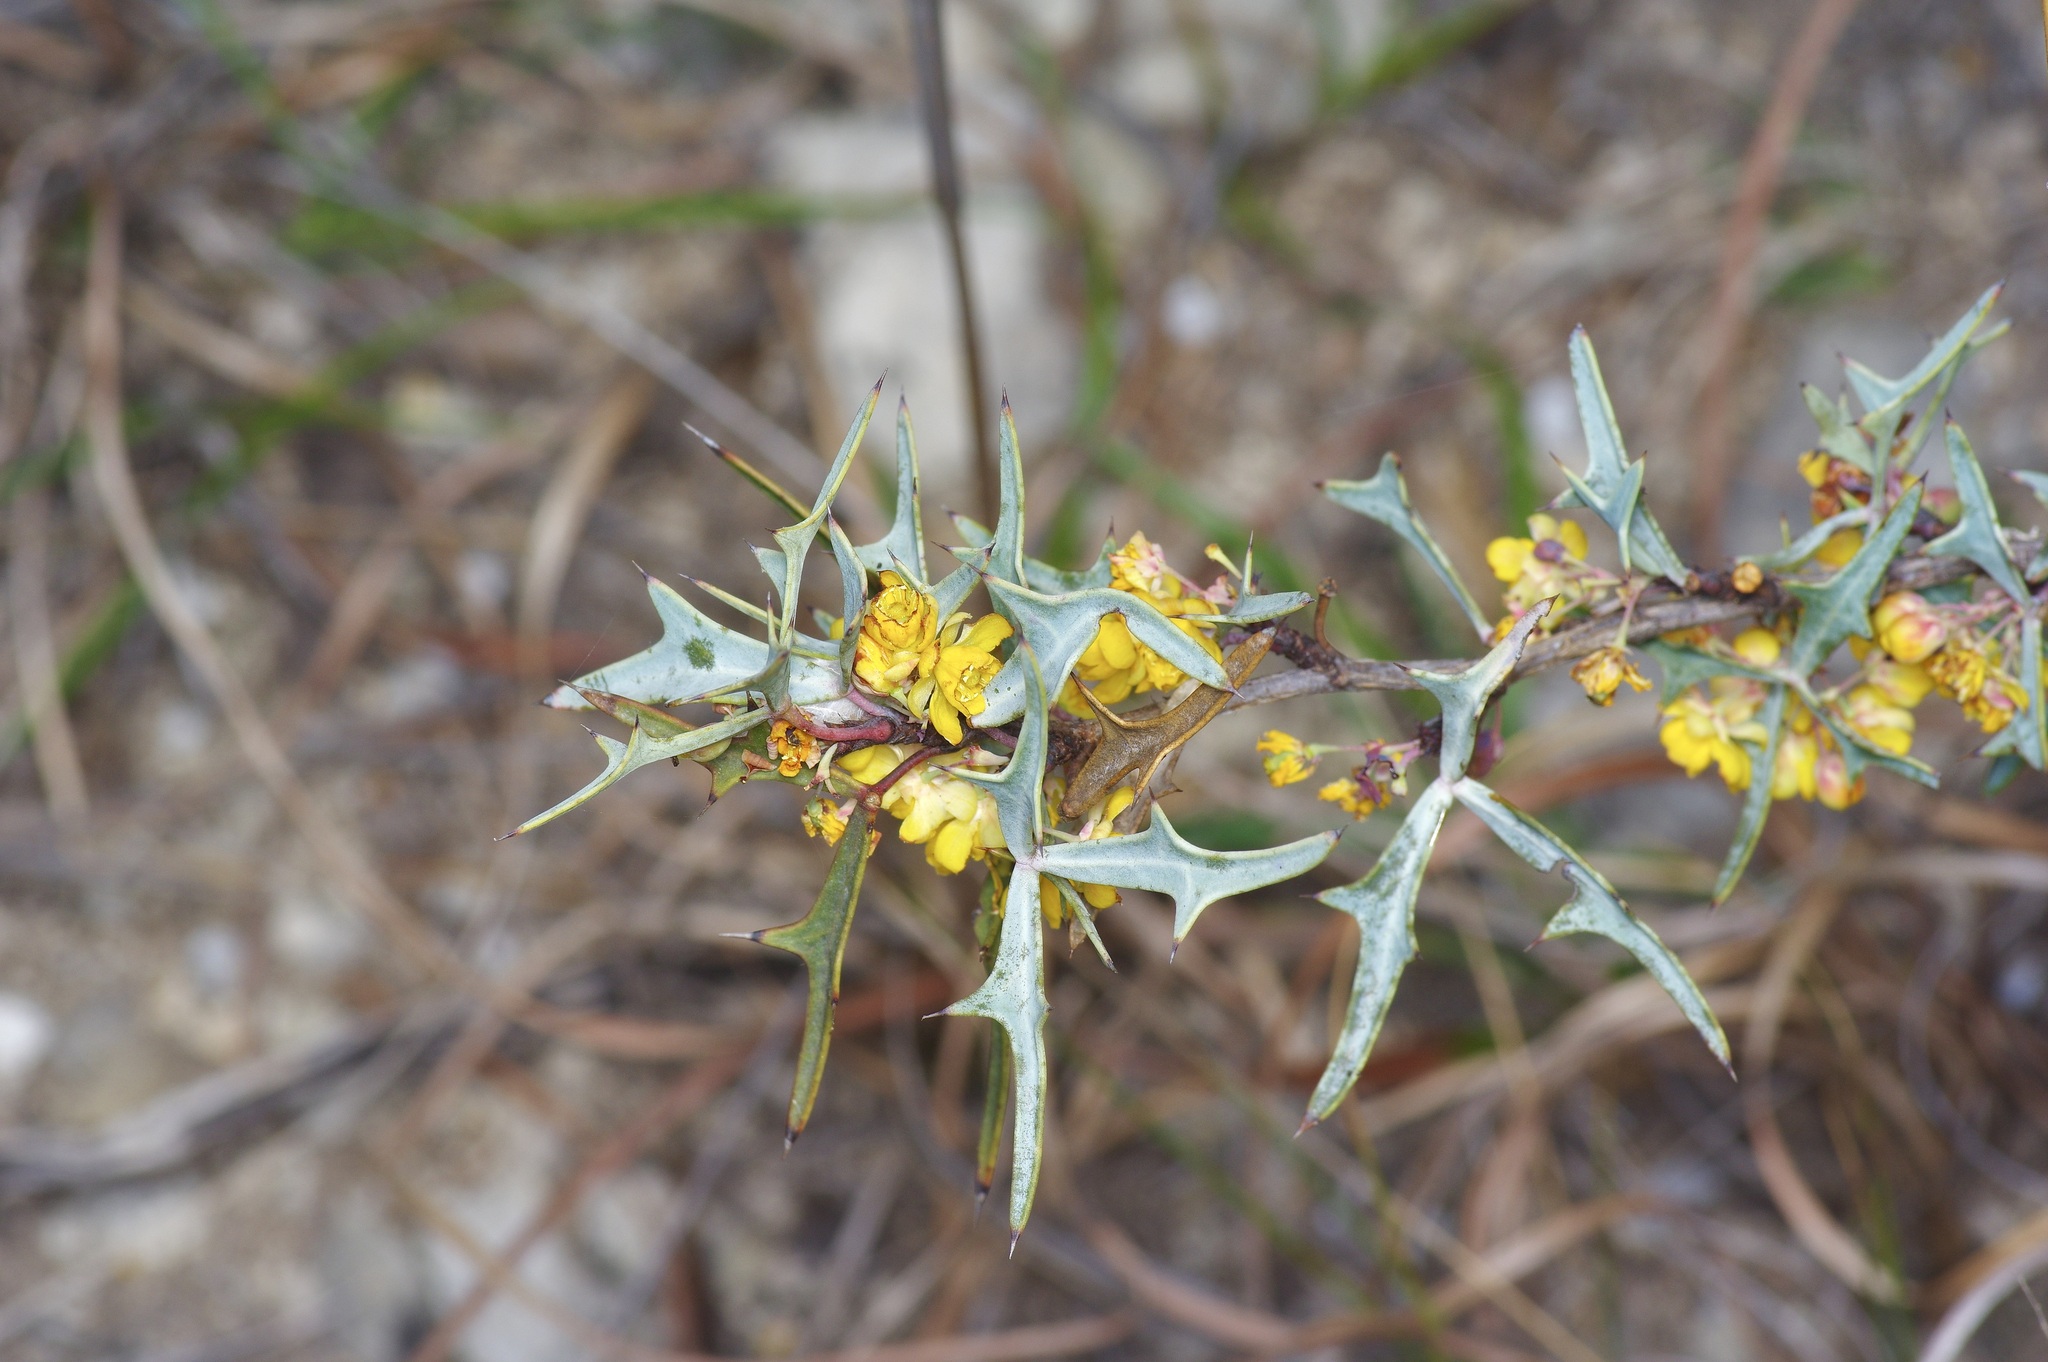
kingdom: Plantae
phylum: Tracheophyta
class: Magnoliopsida
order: Ranunculales
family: Berberidaceae
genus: Alloberberis
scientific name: Alloberberis trifoliolata
